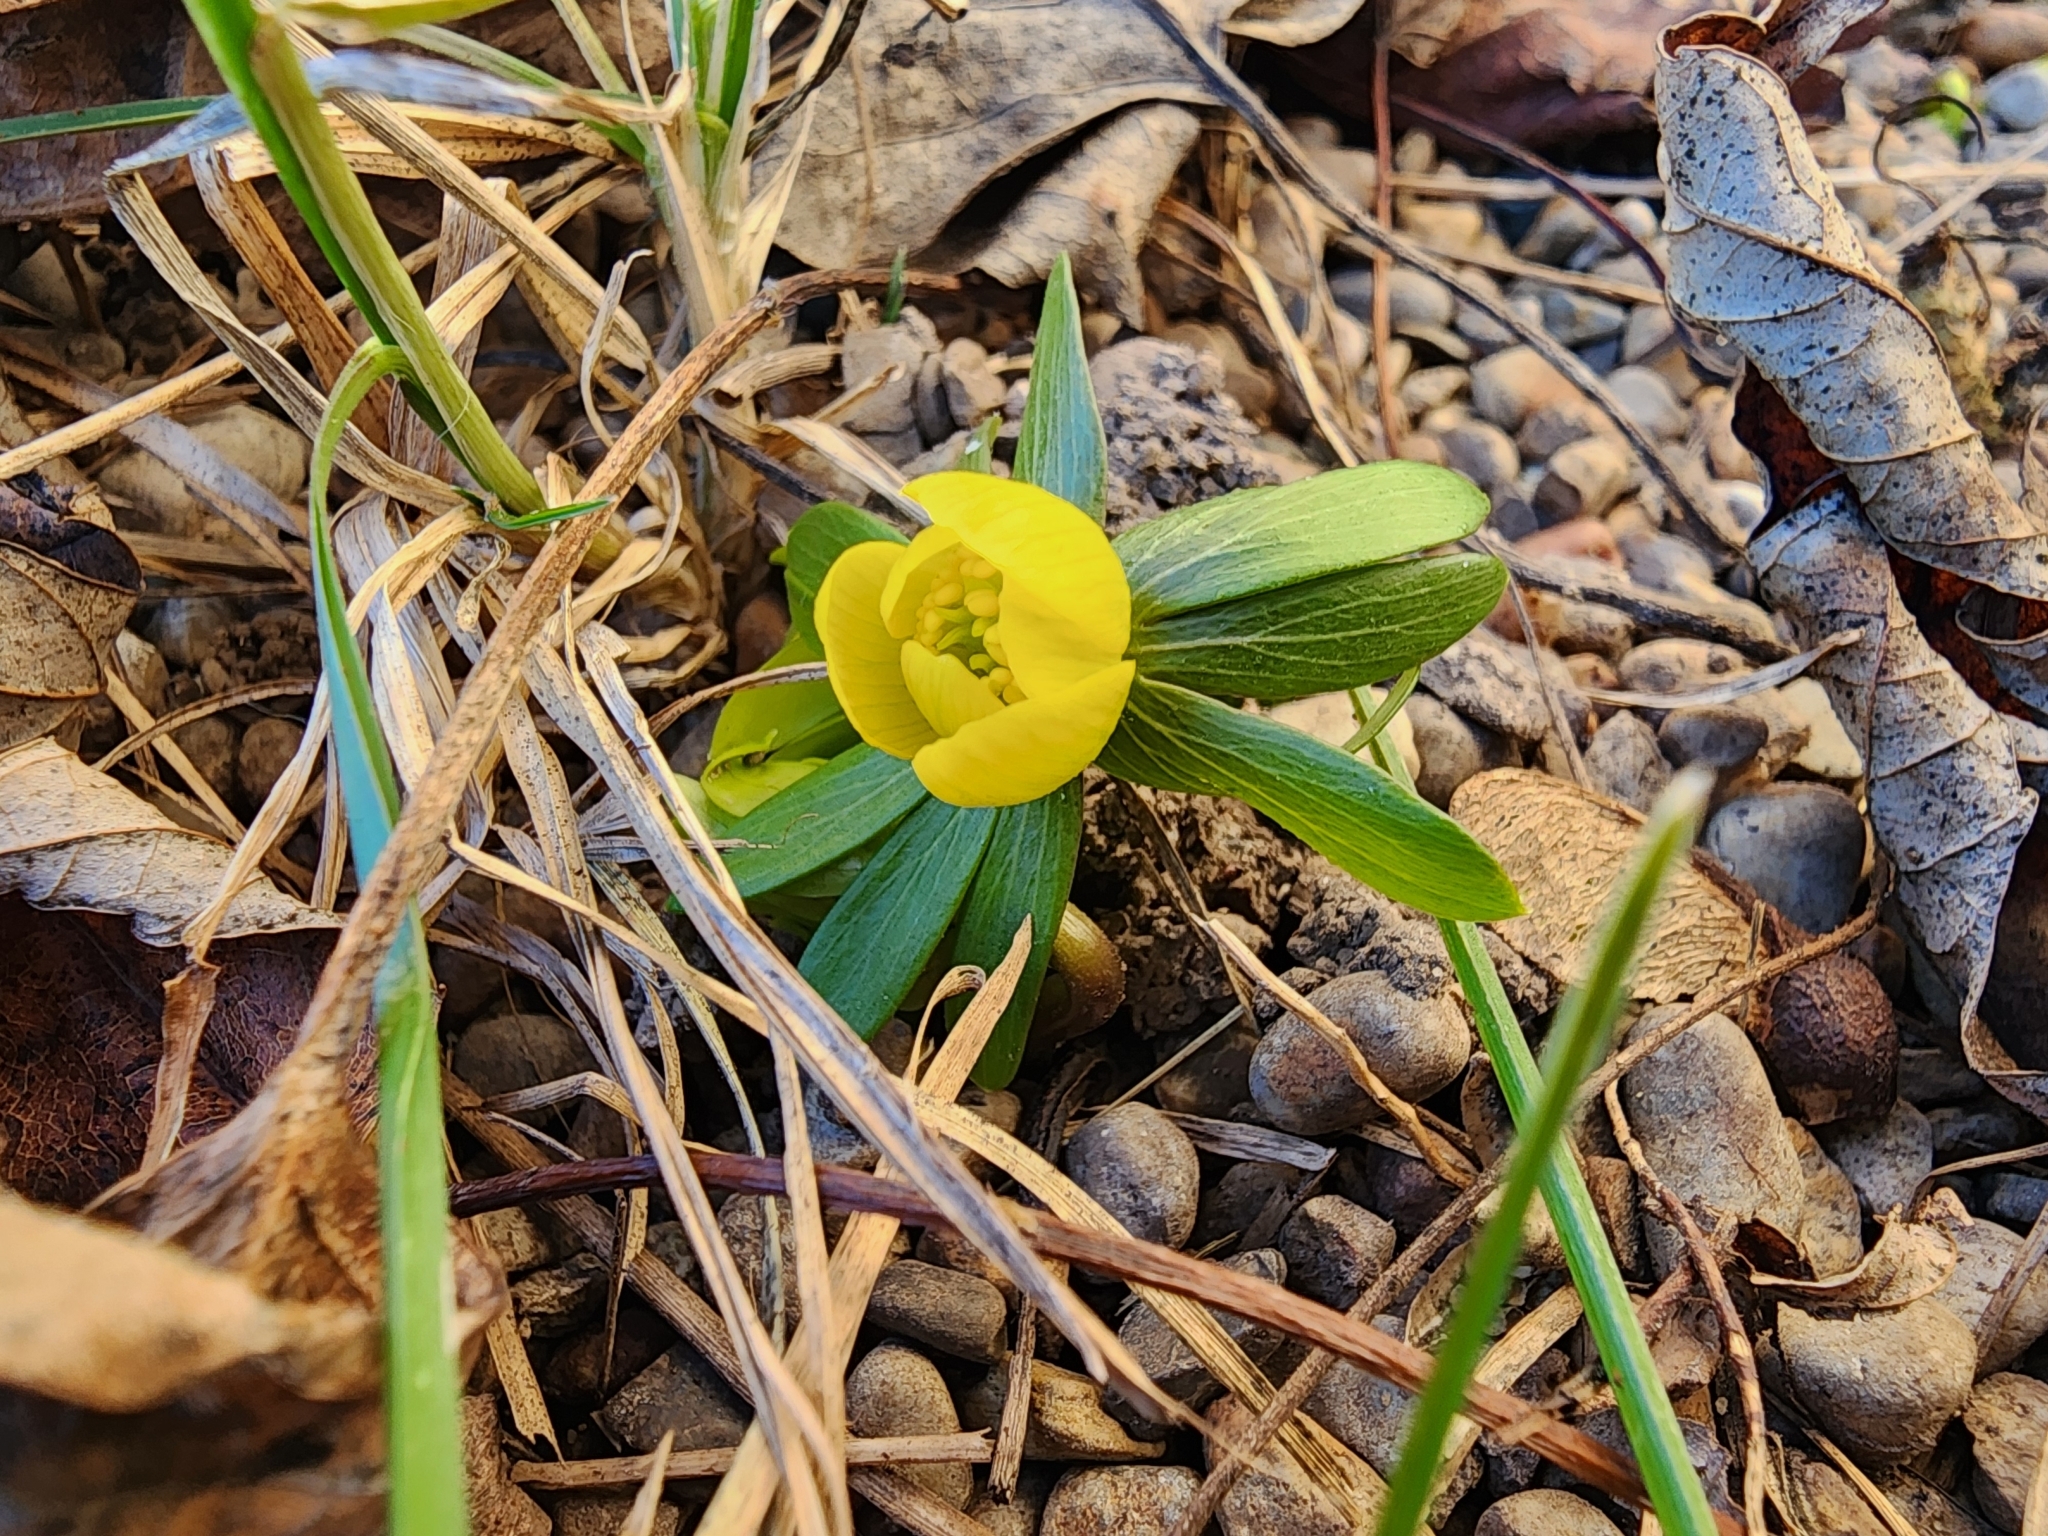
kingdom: Plantae
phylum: Tracheophyta
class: Magnoliopsida
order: Ranunculales
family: Ranunculaceae
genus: Eranthis
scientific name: Eranthis hyemalis
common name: Winter aconite
